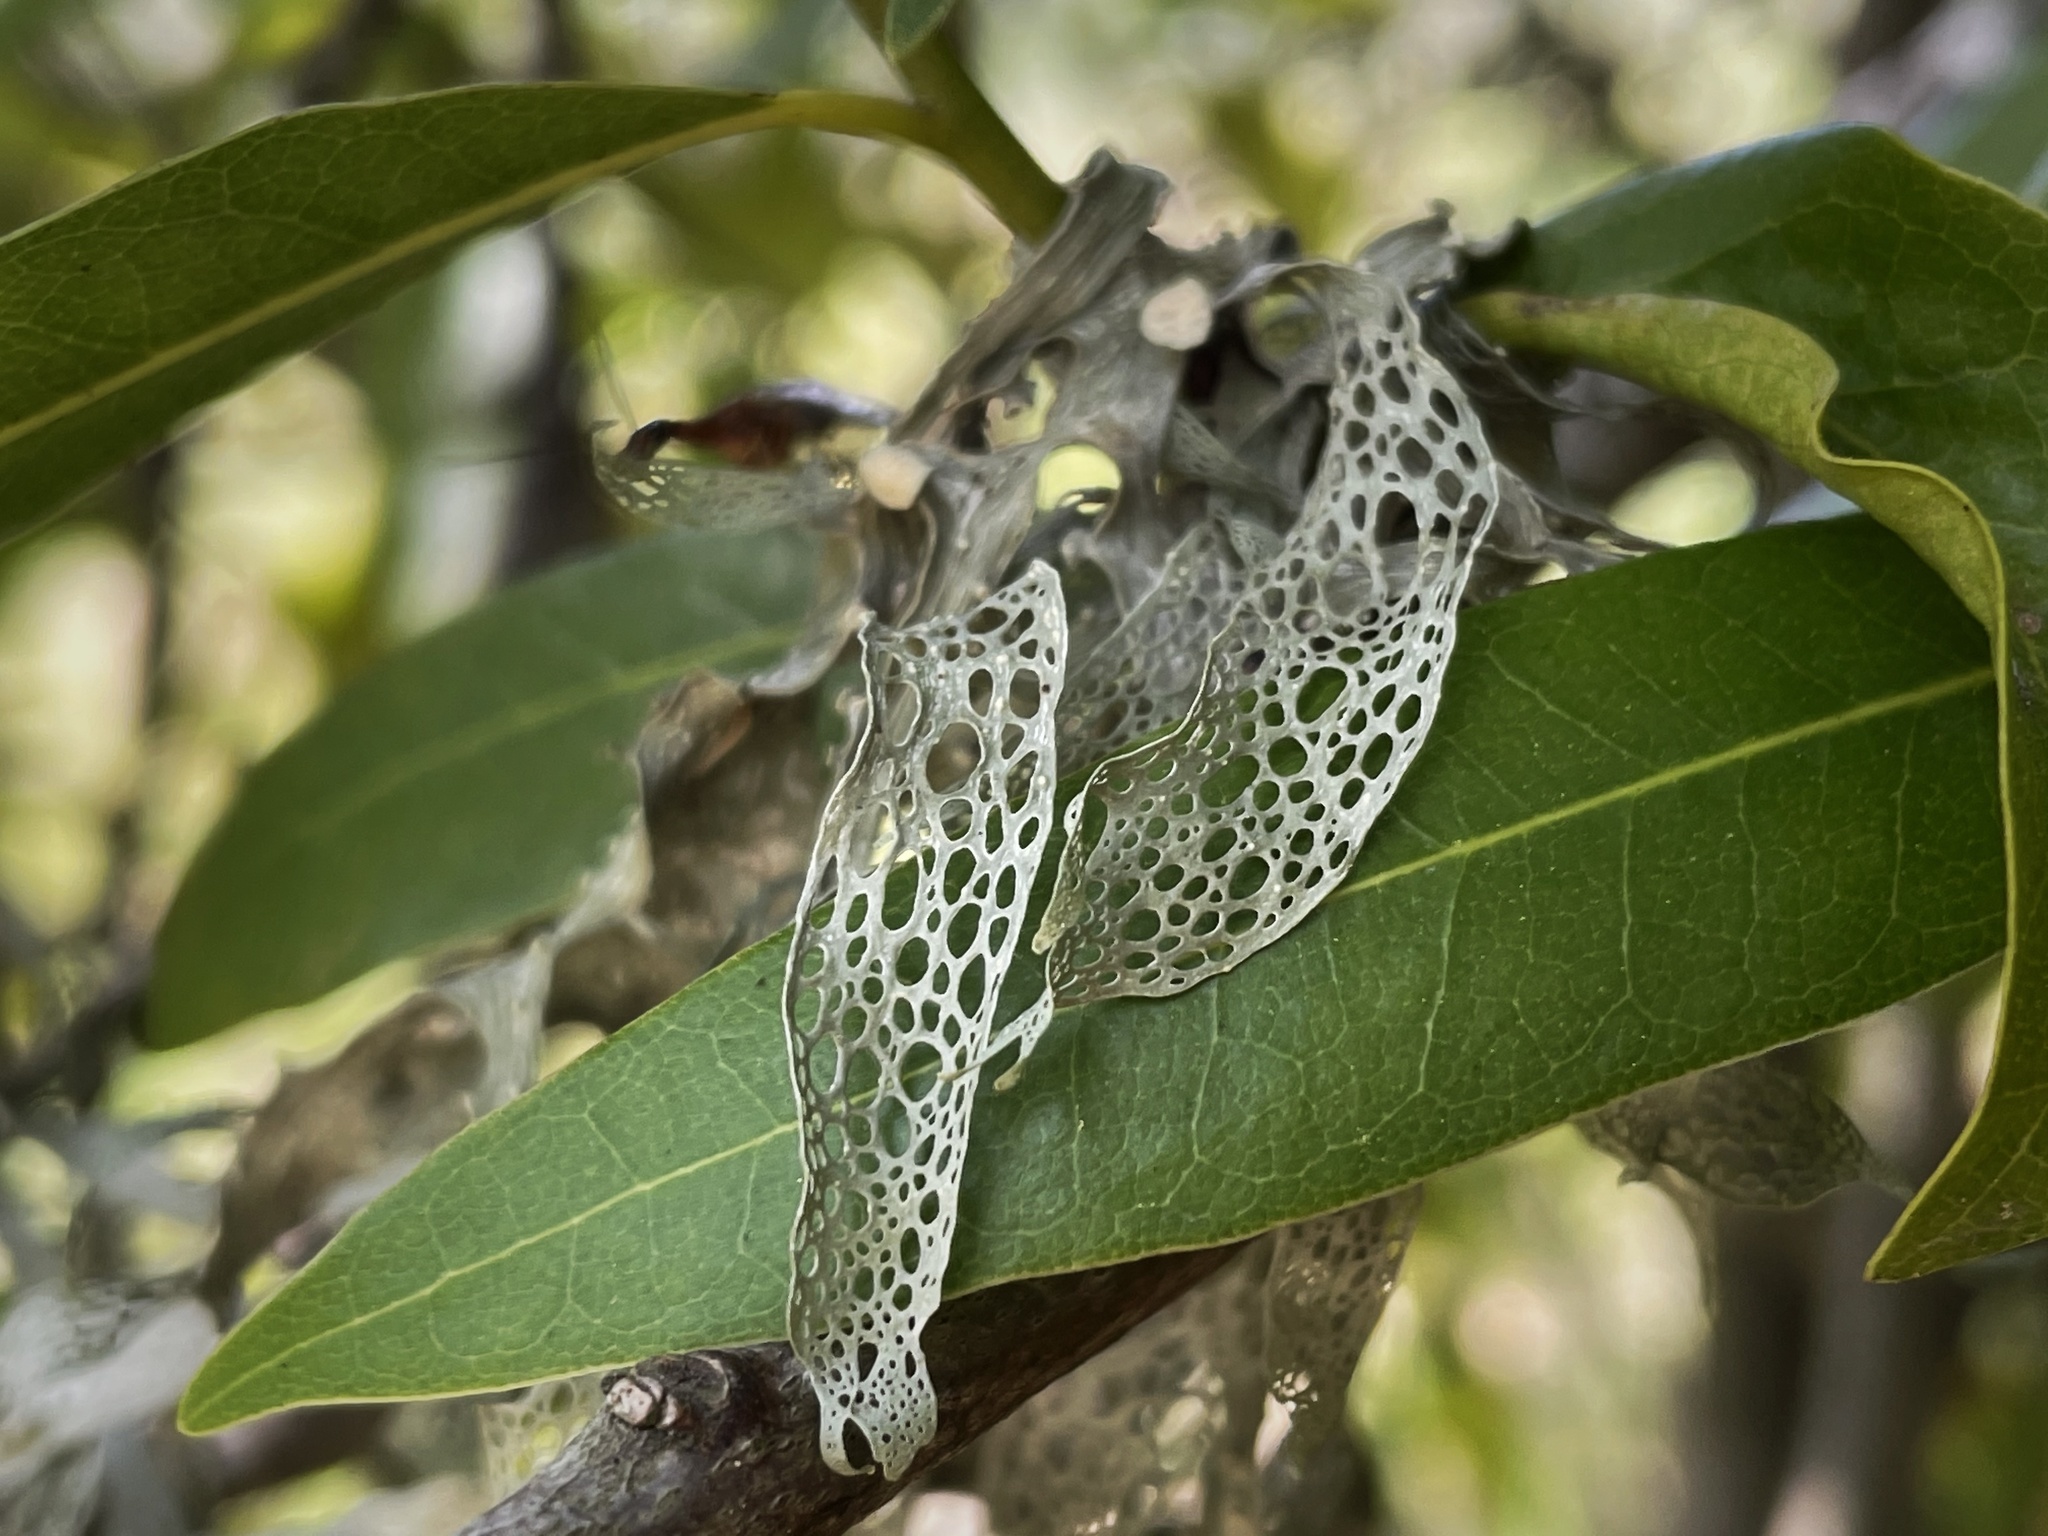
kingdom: Fungi
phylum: Ascomycota
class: Lecanoromycetes
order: Lecanorales
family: Ramalinaceae
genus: Ramalina
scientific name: Ramalina menziesii
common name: Lace lichen
